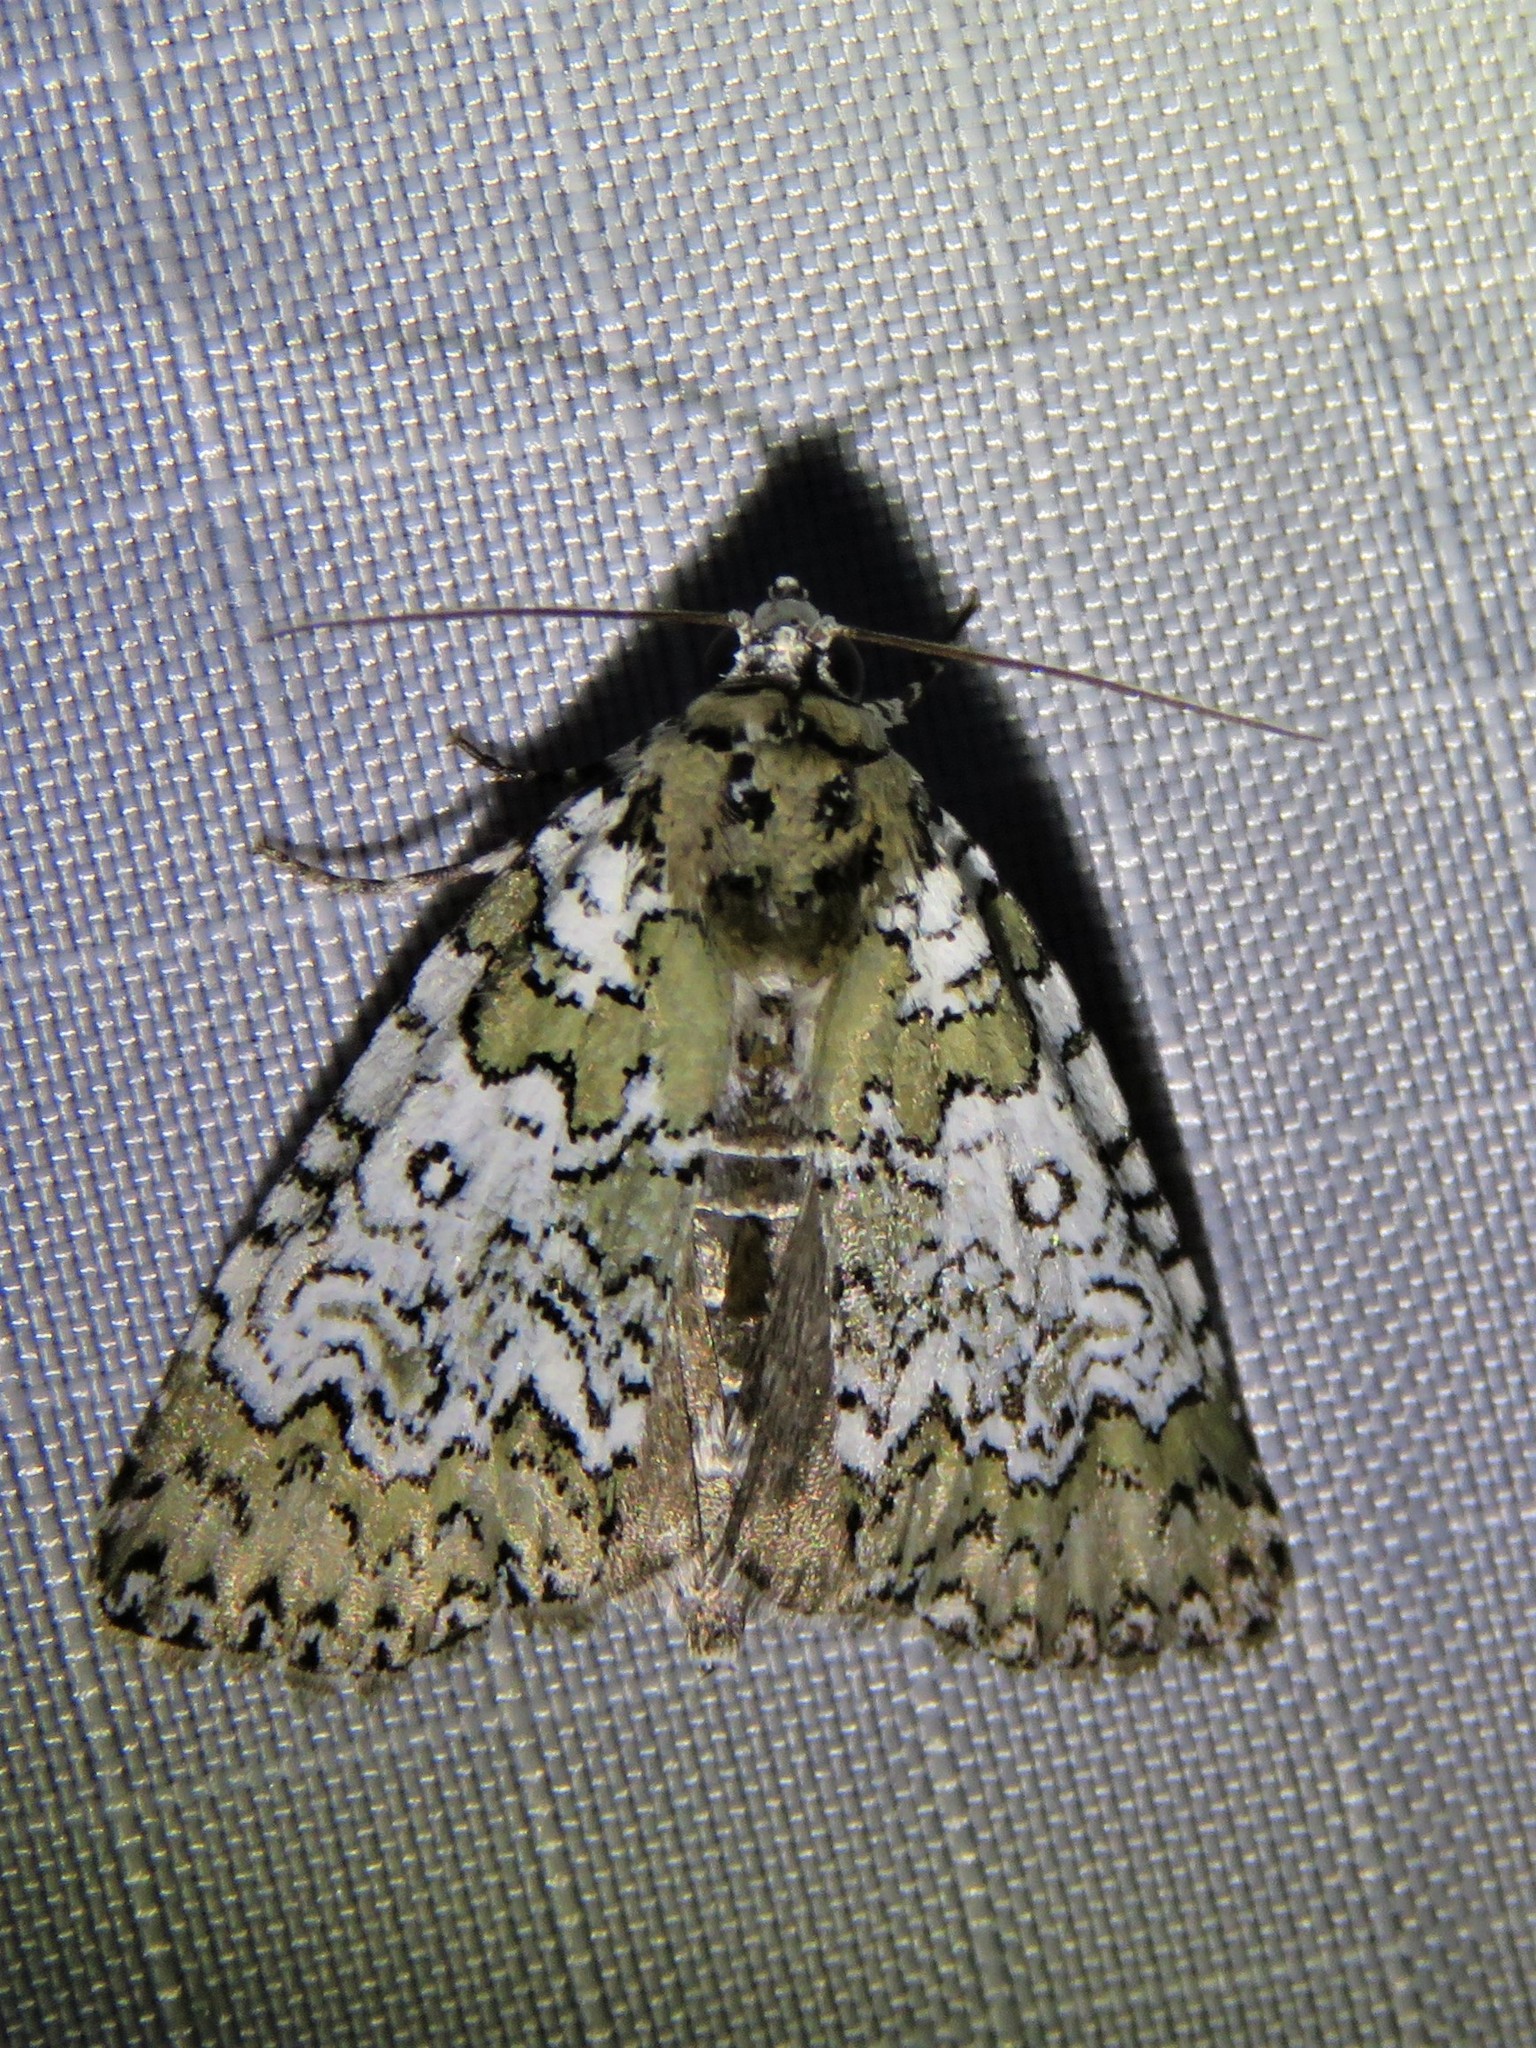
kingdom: Animalia
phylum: Arthropoda
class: Insecta
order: Lepidoptera
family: Noctuidae
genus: Cerma
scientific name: Cerma cora
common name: Bird dropping moth
